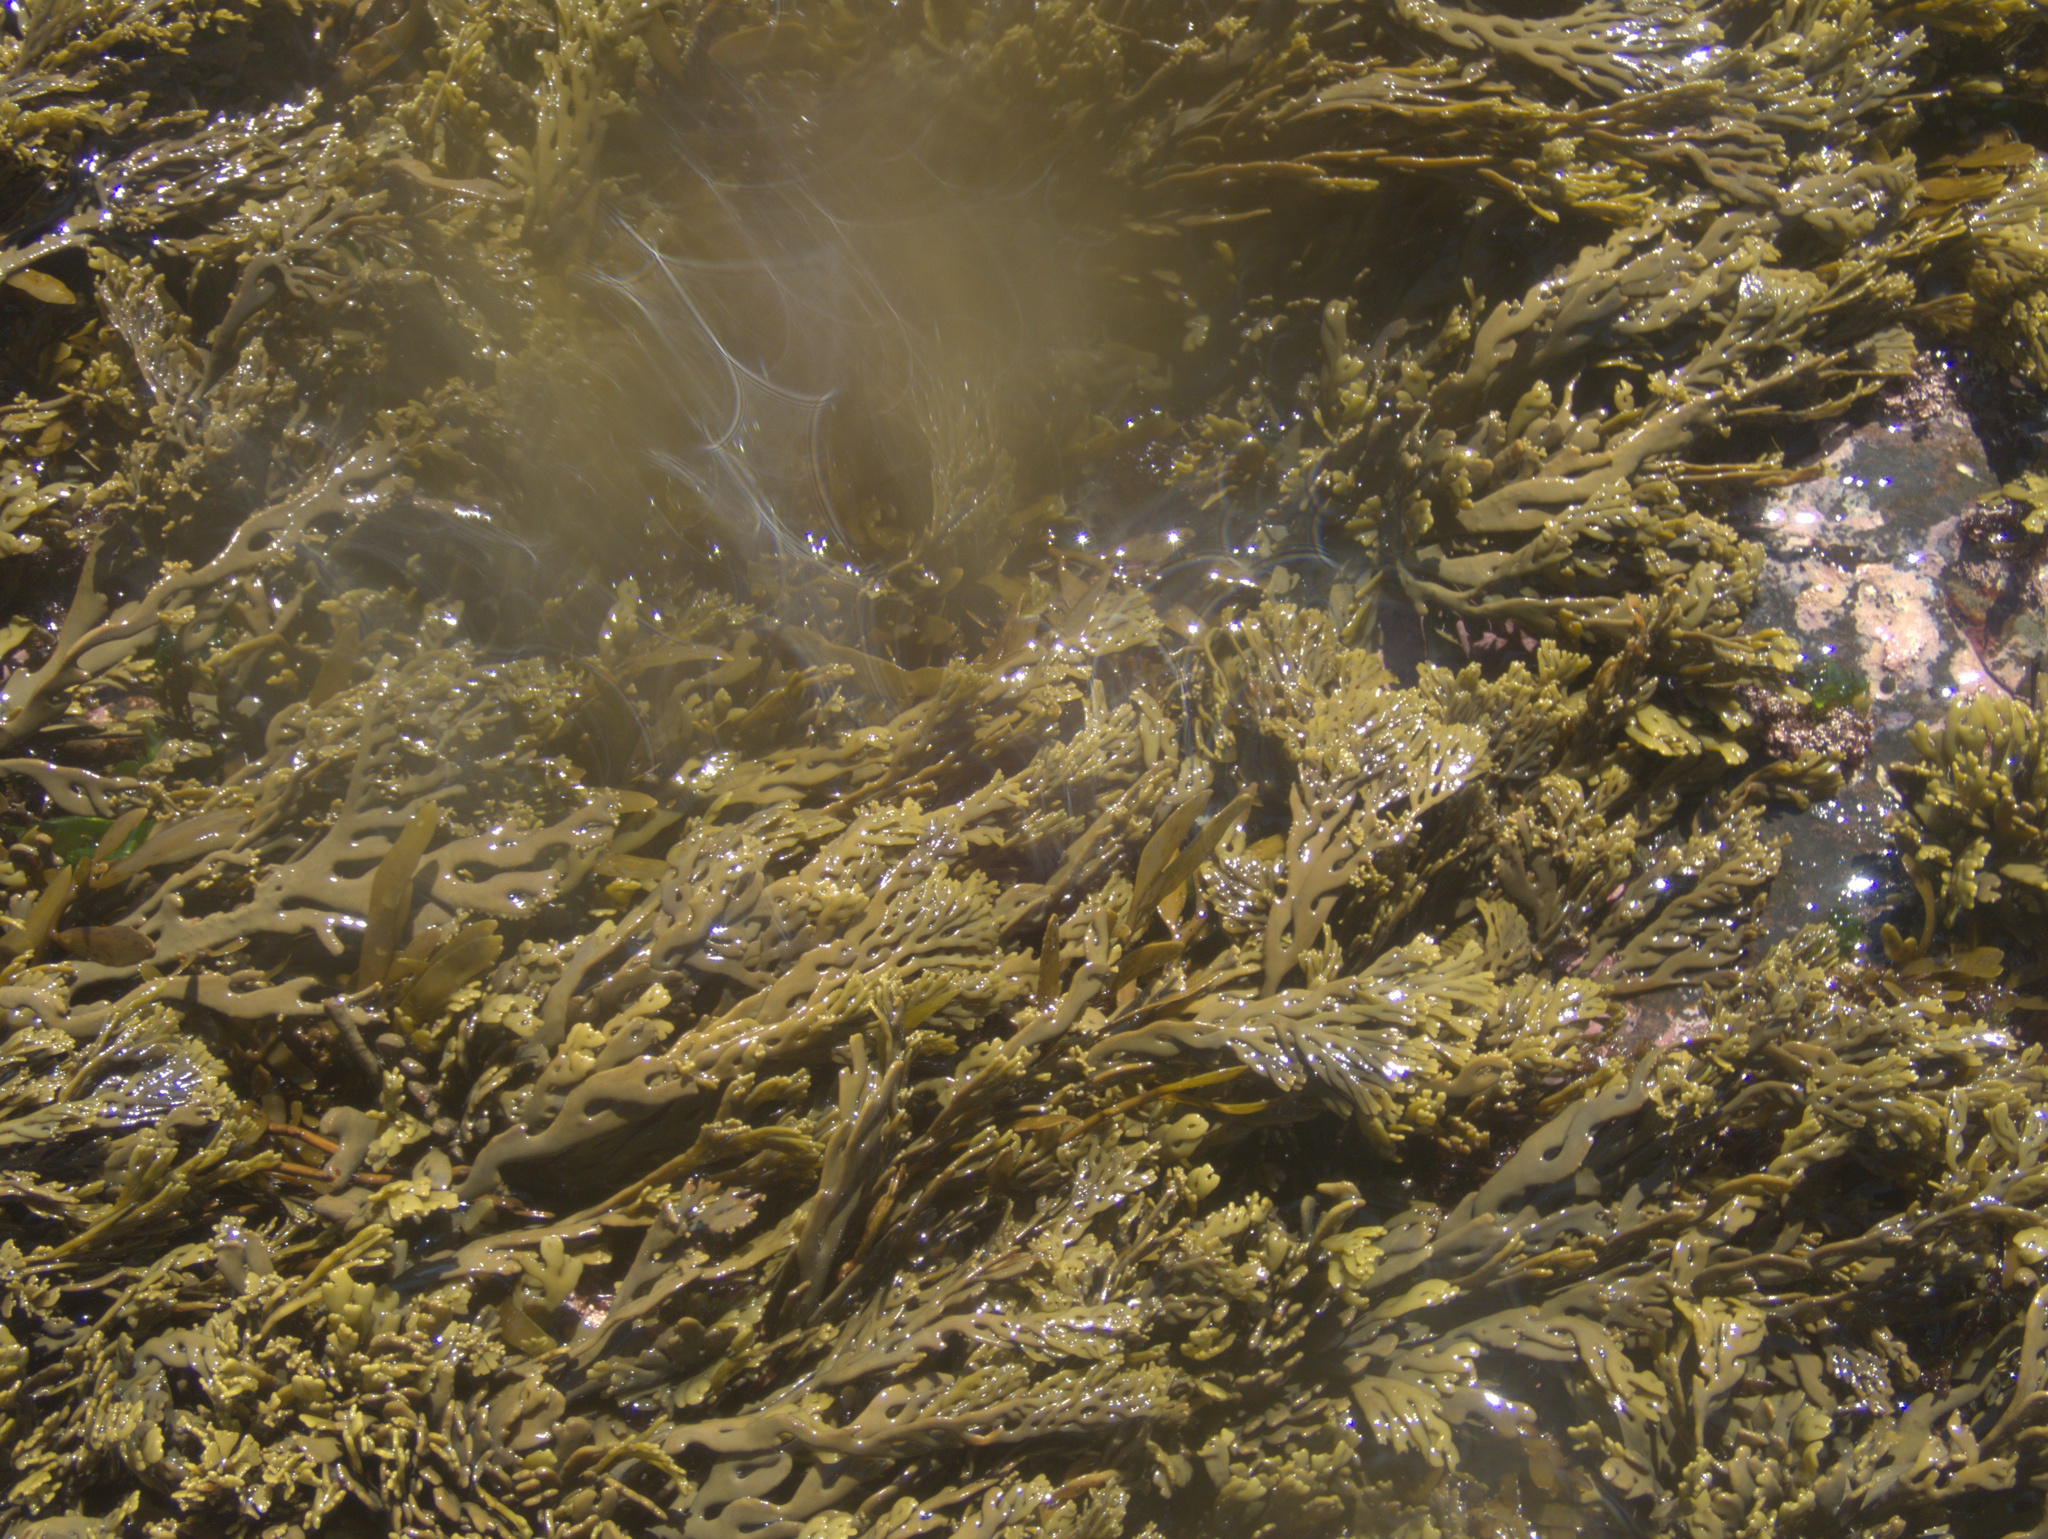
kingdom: Chromista
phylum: Ochrophyta
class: Phaeophyceae
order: Fucales
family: Xiphophoraceae
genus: Xiphophora
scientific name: Xiphophora chondrophylla
